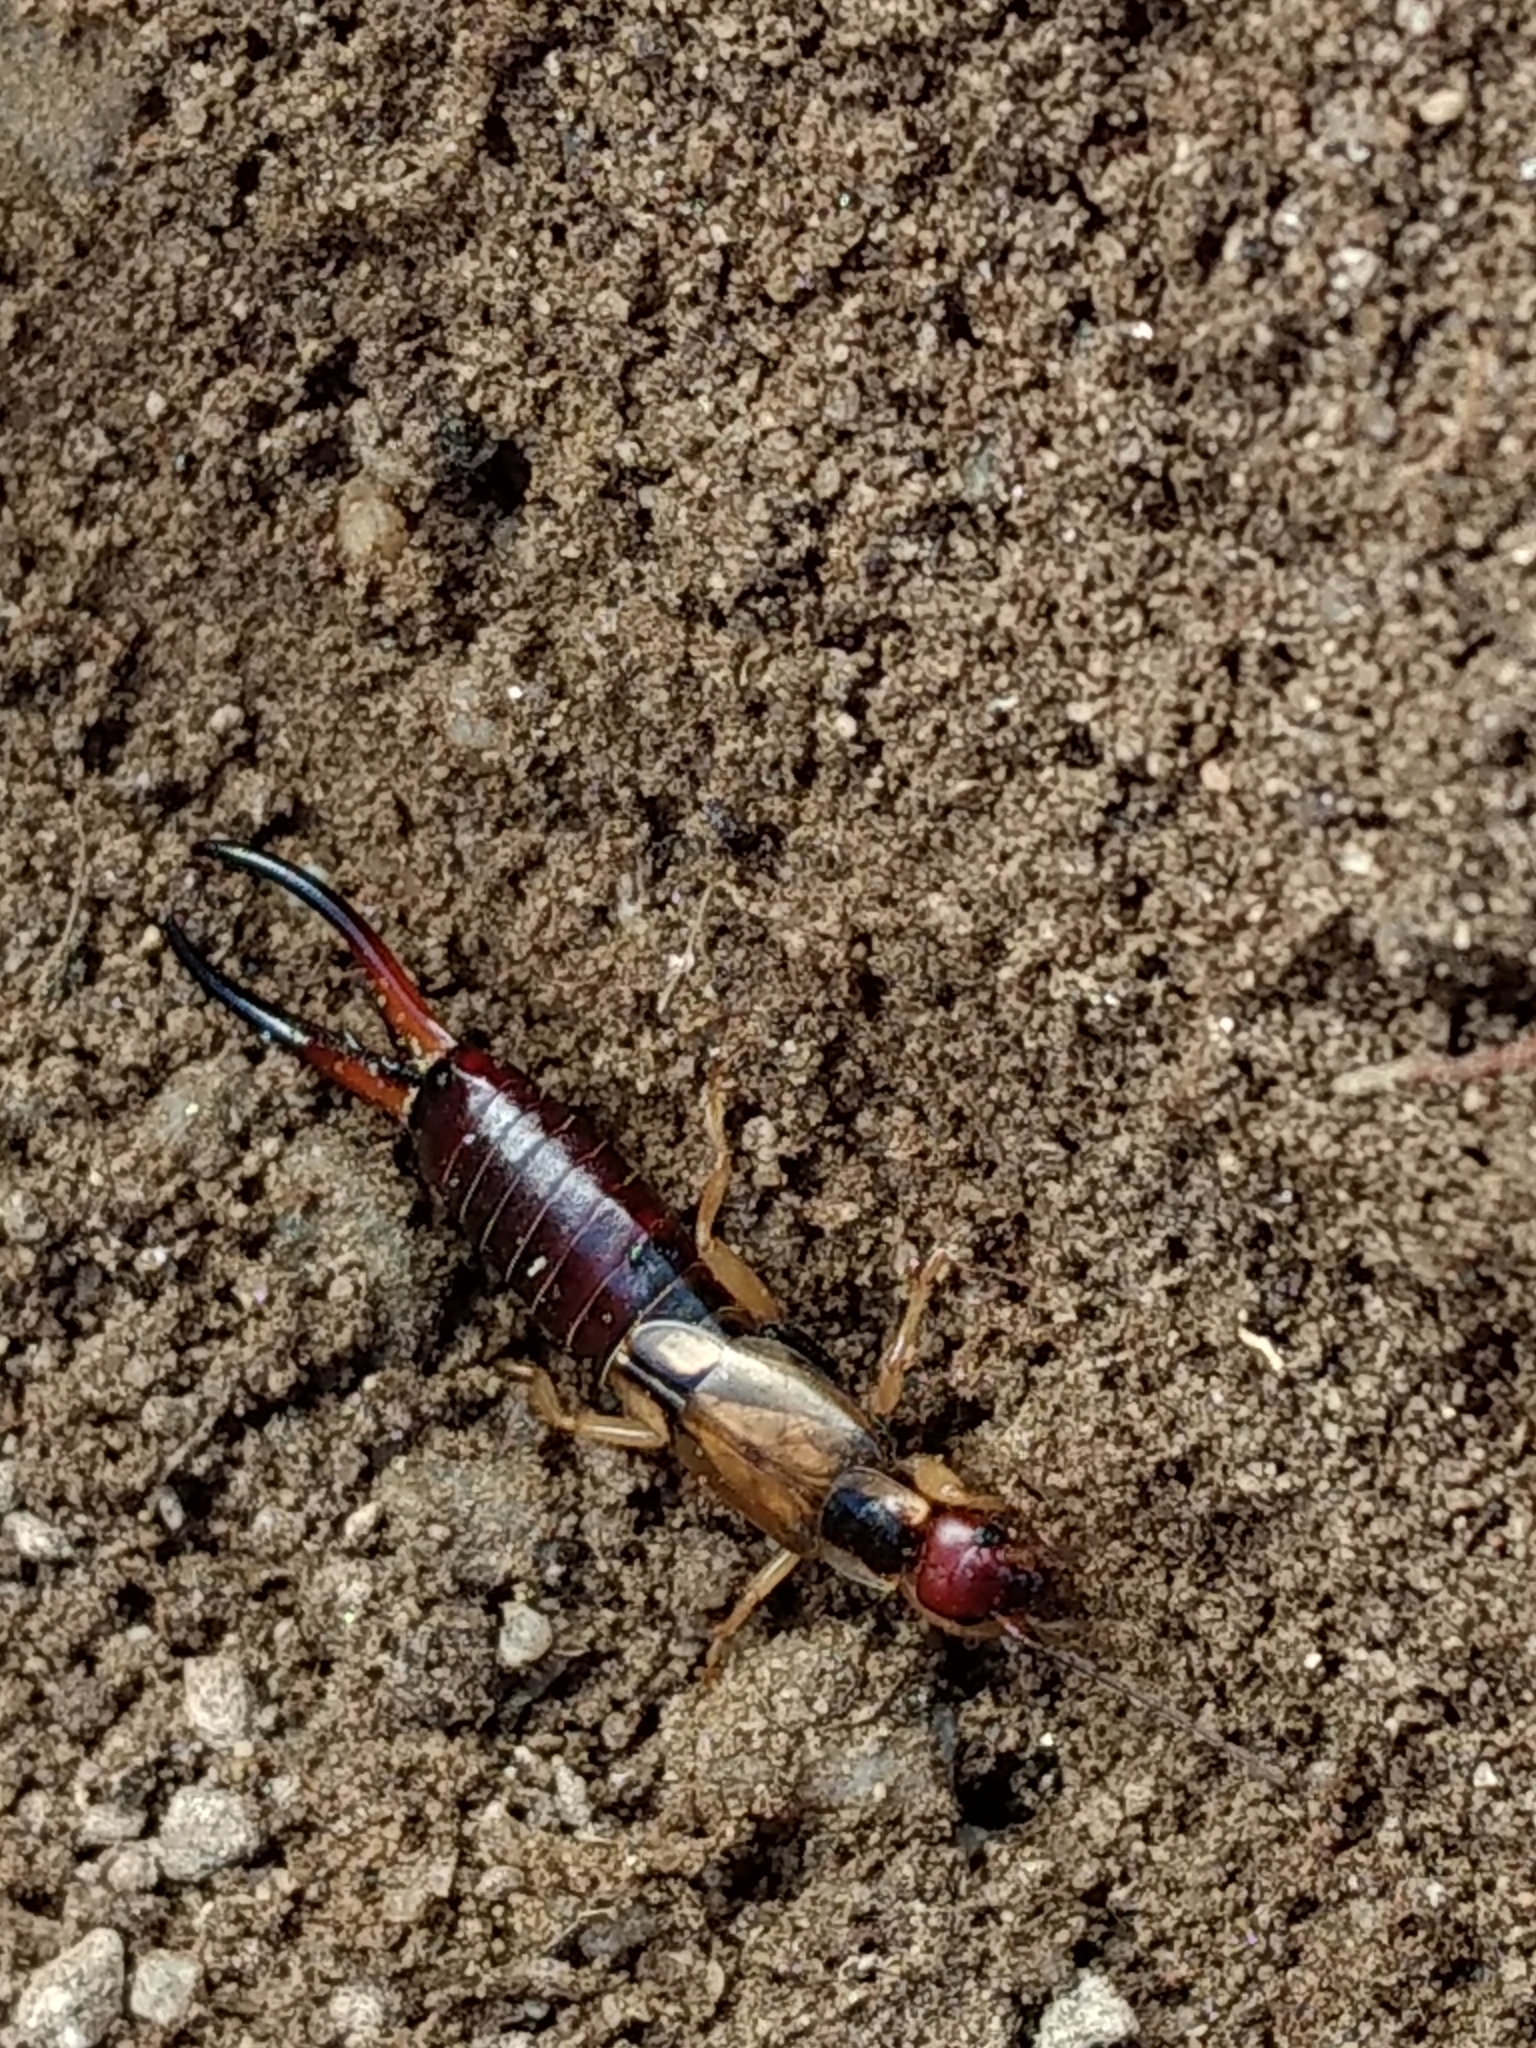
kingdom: Animalia
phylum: Arthropoda
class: Insecta
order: Dermaptera
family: Forficulidae
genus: Forficula
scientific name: Forficula
